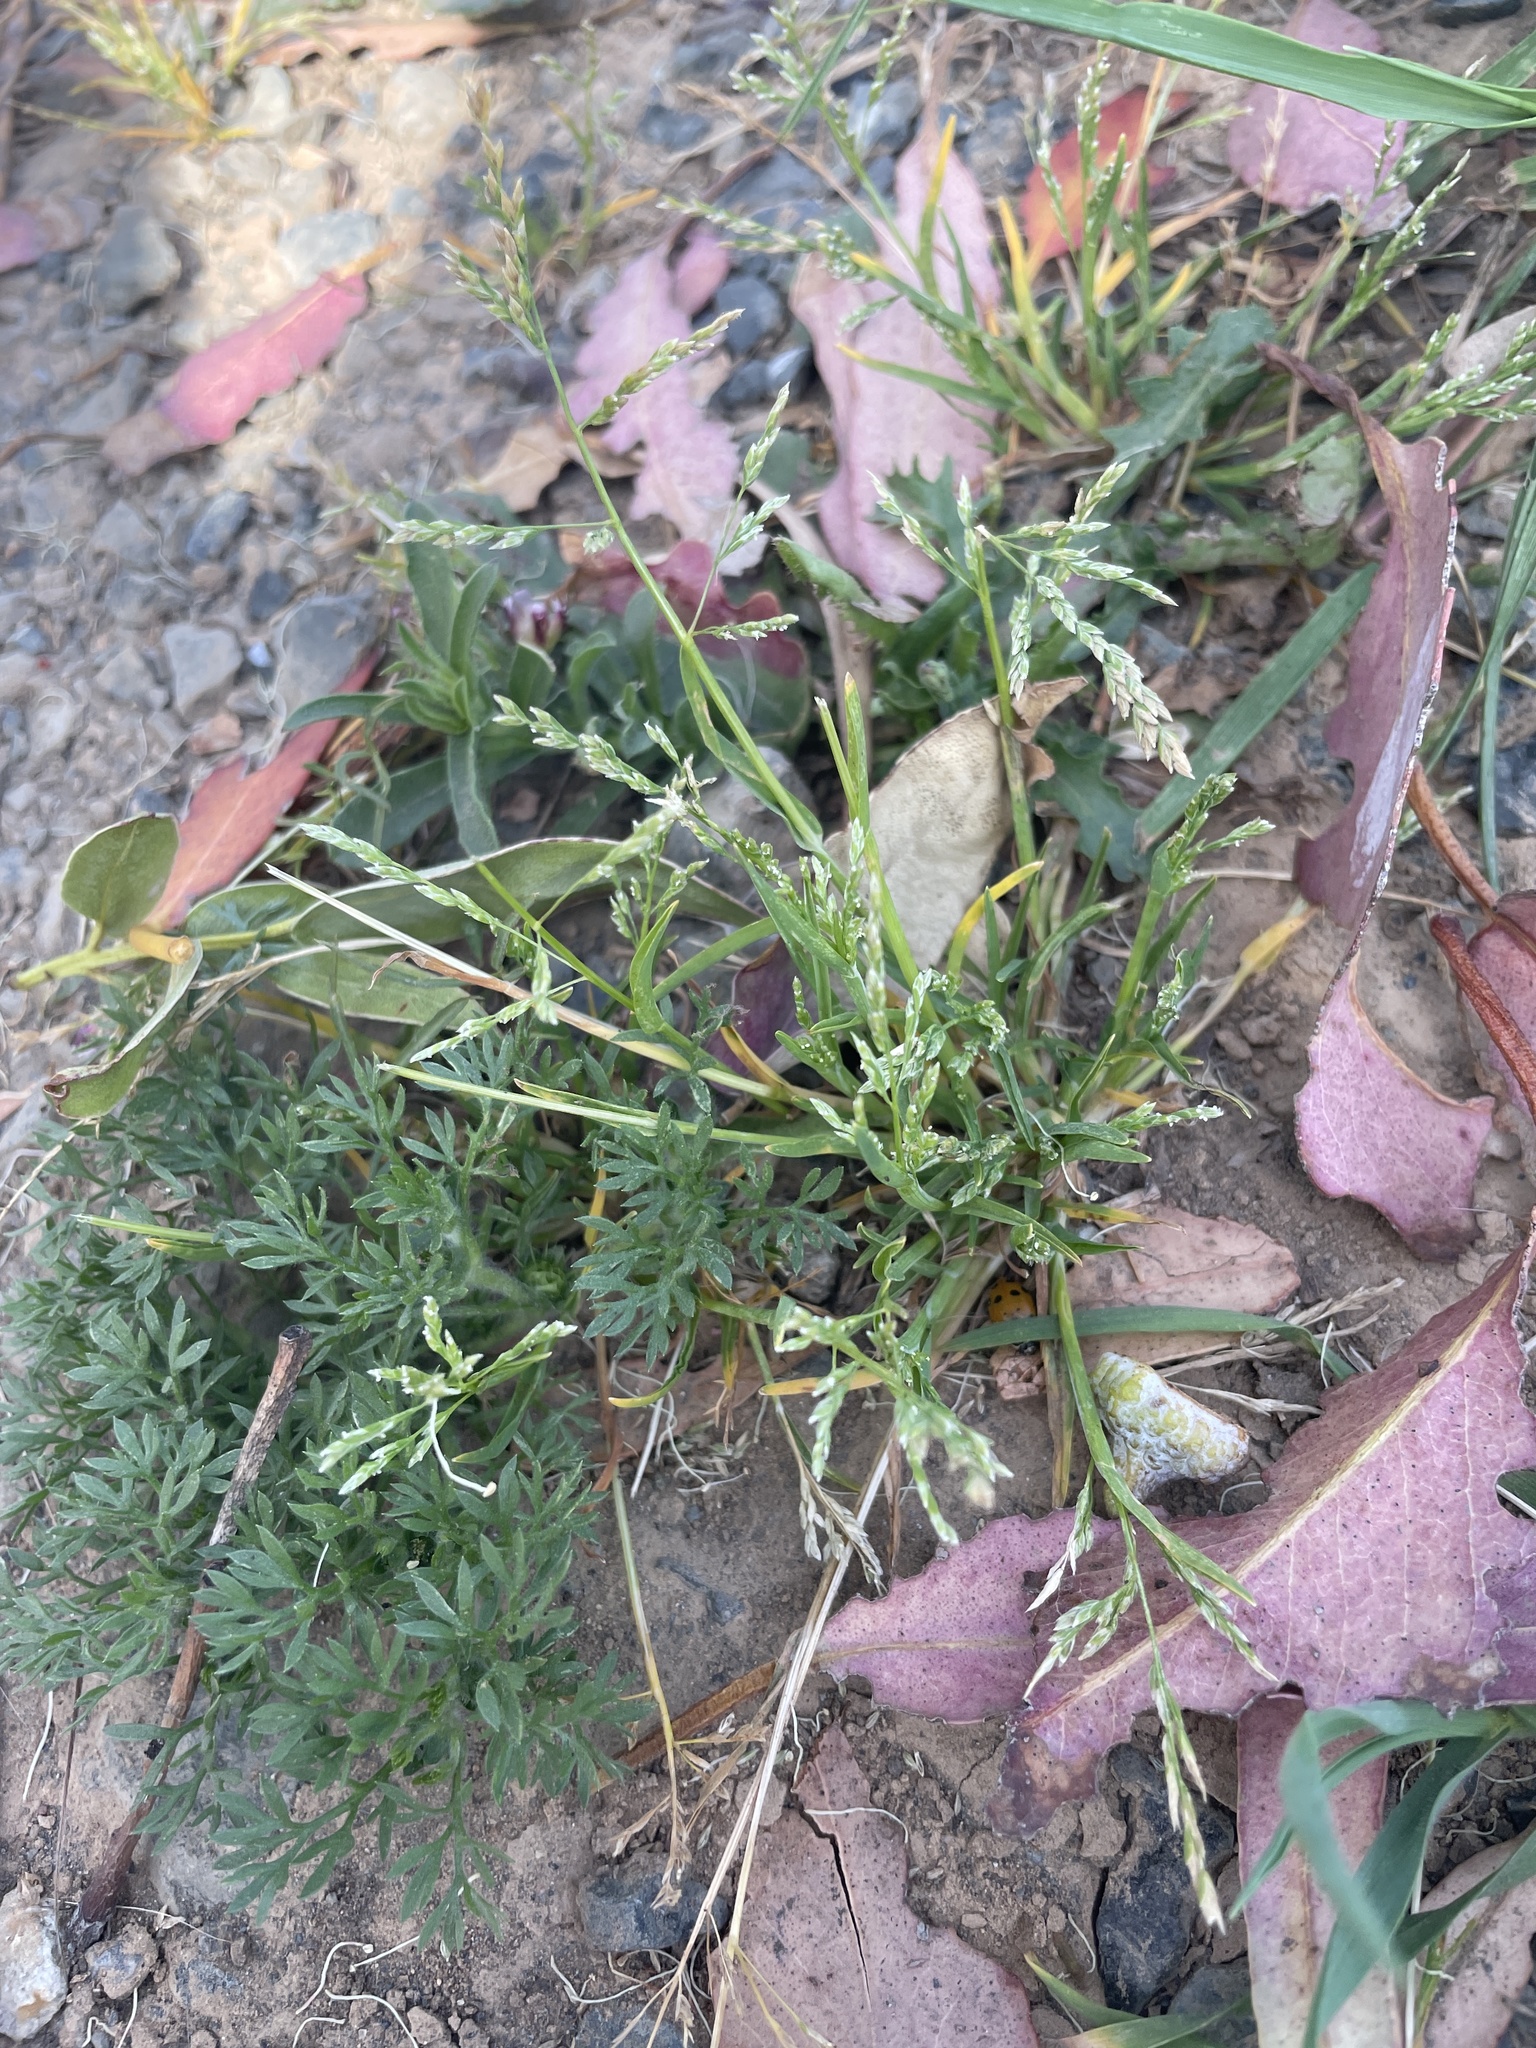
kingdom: Plantae
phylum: Tracheophyta
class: Liliopsida
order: Poales
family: Poaceae
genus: Poa
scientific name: Poa annua
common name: Annual bluegrass
